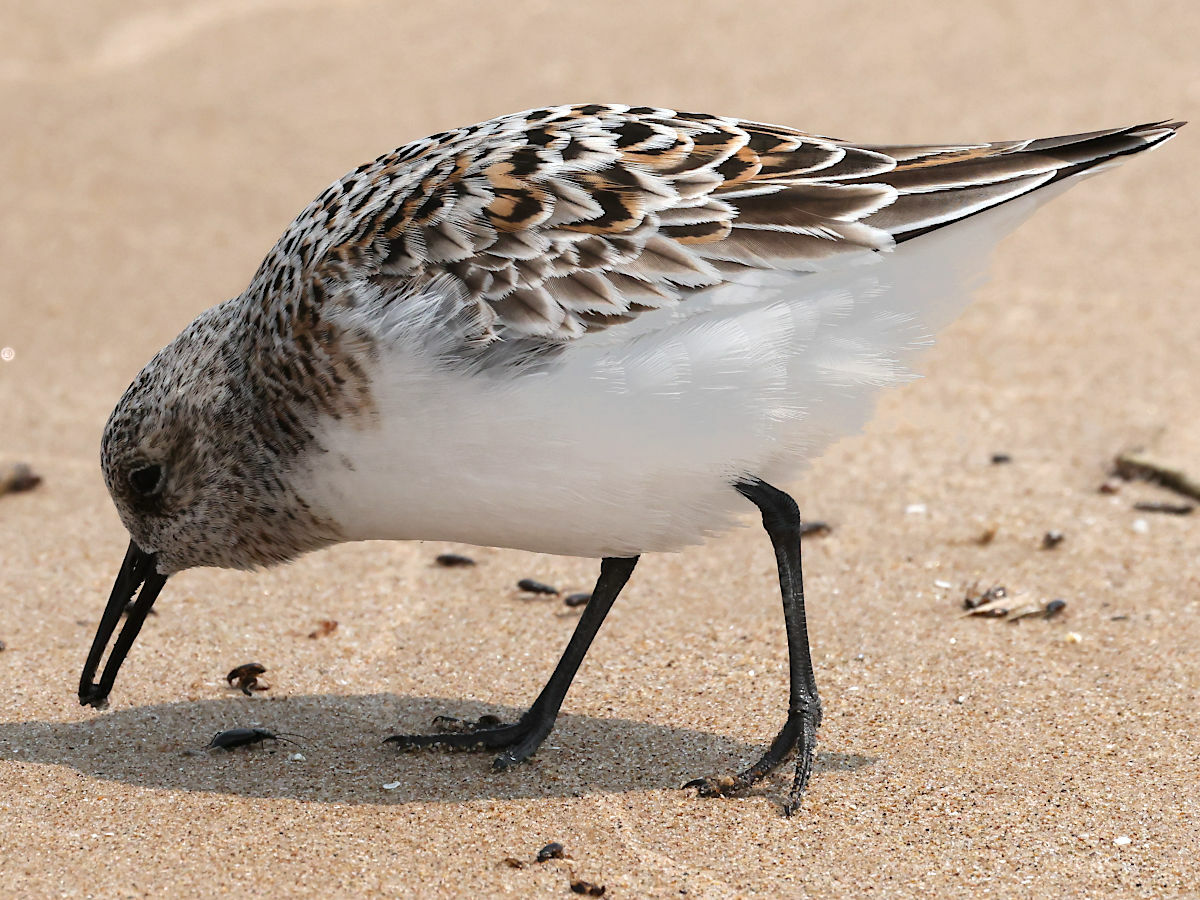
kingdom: Animalia
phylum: Chordata
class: Aves
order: Charadriiformes
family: Scolopacidae
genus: Calidris
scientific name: Calidris alba
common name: Sanderling
